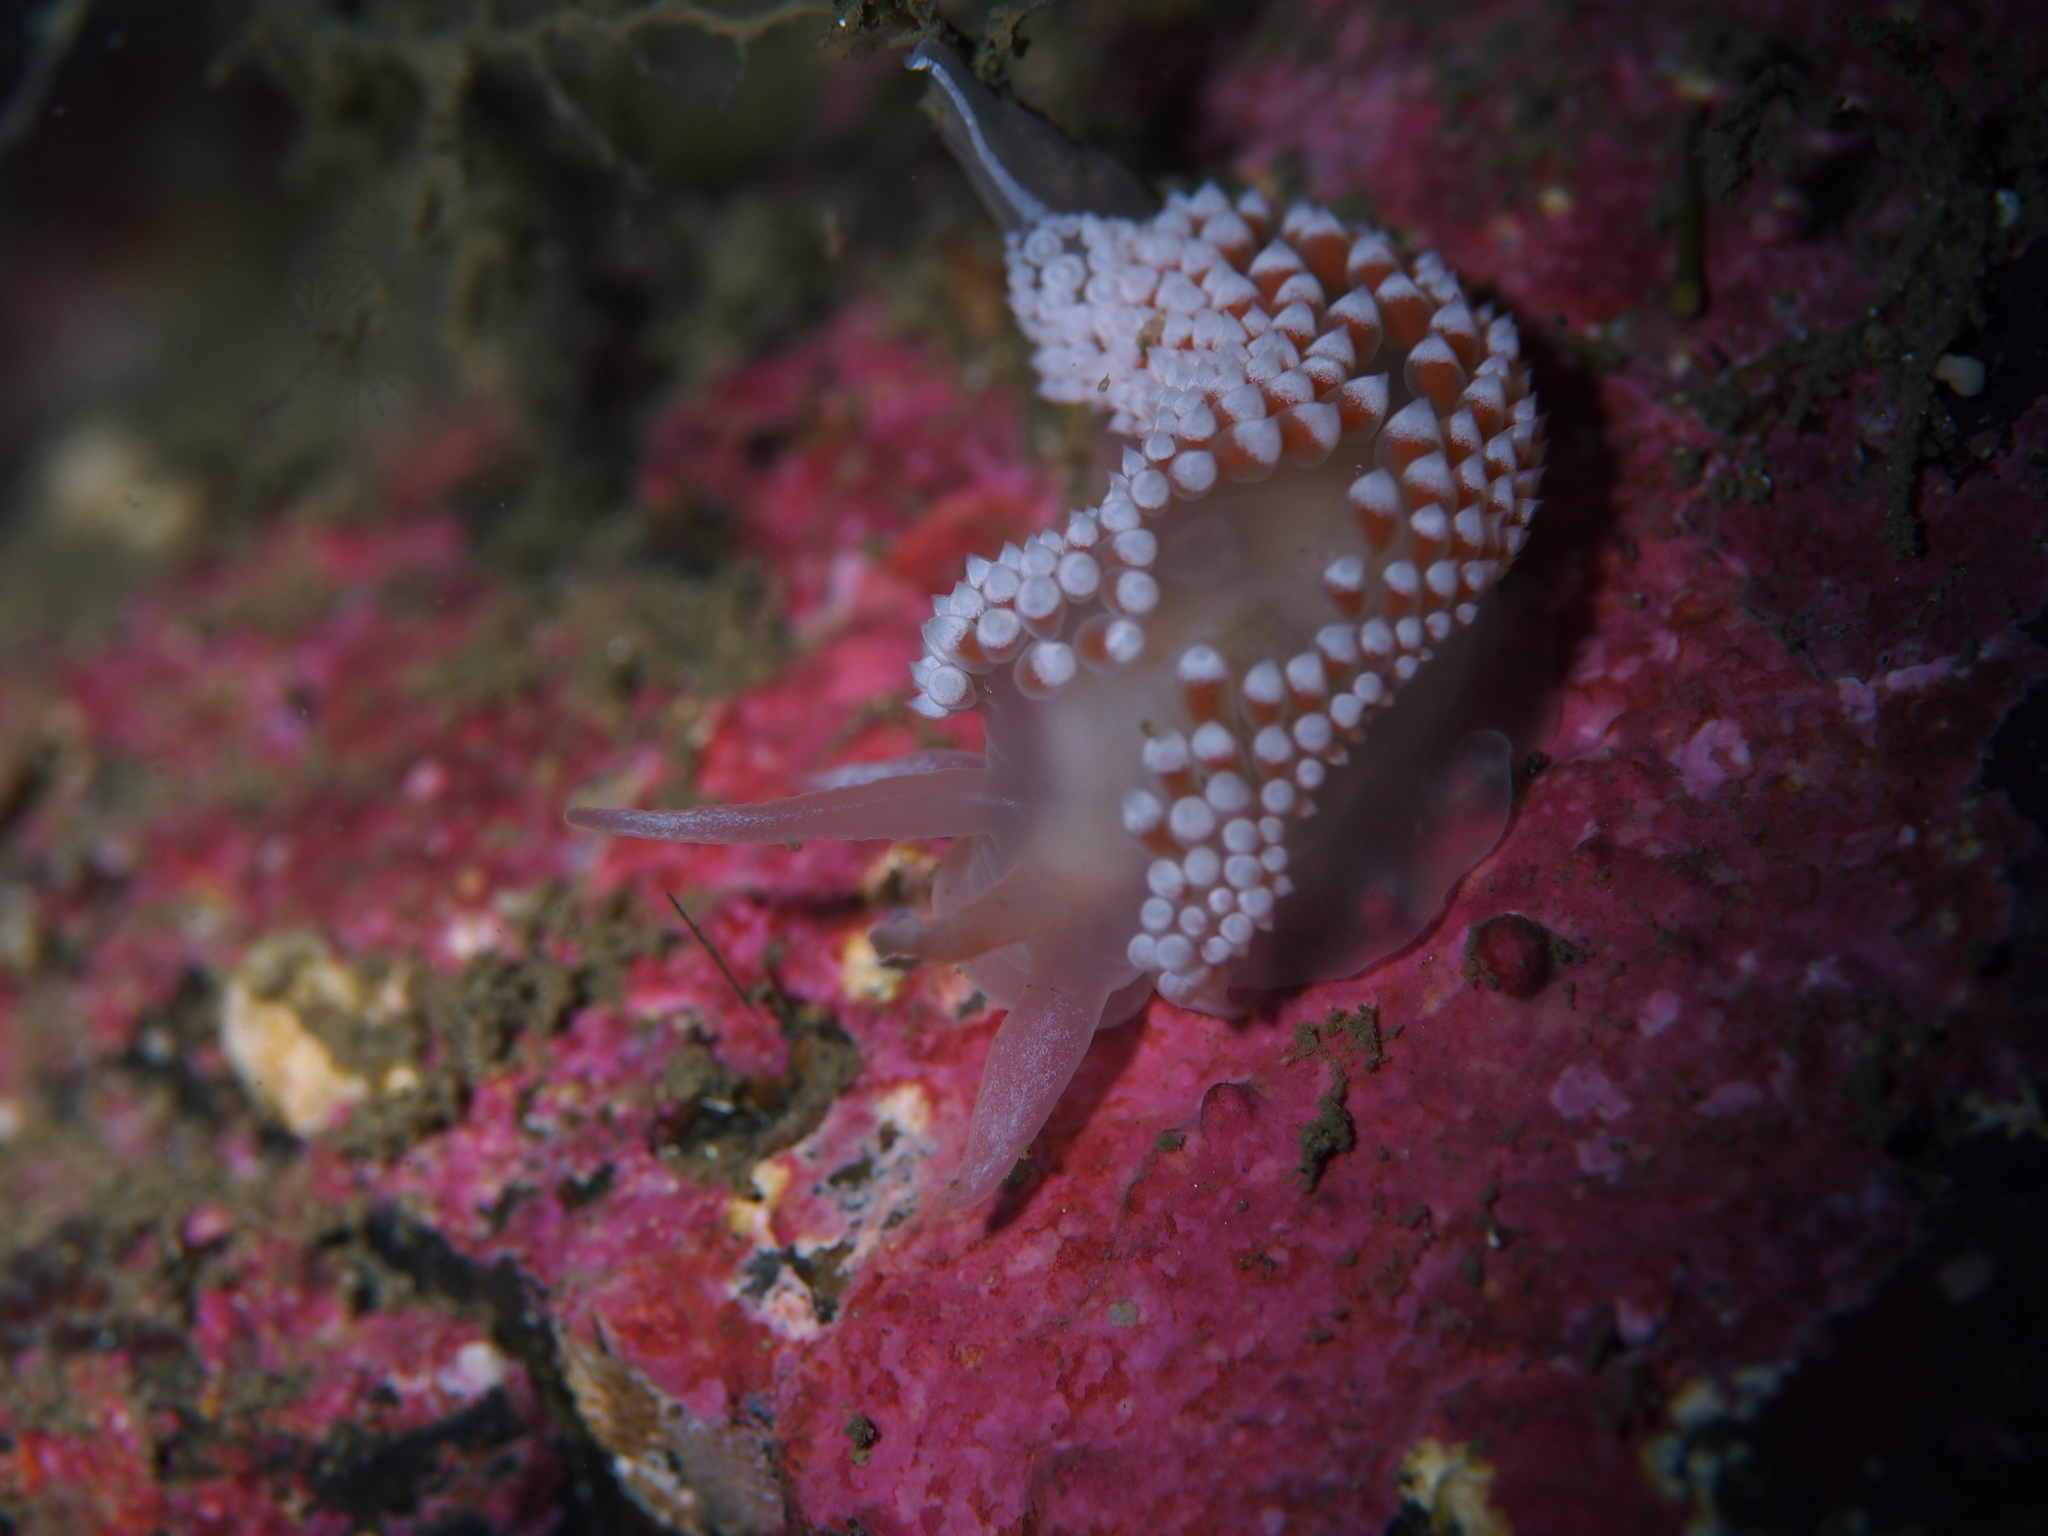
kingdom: Animalia
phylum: Mollusca
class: Gastropoda
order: Nudibranchia
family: Coryphellidae
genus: Coryphella
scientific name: Coryphella verrucosa
